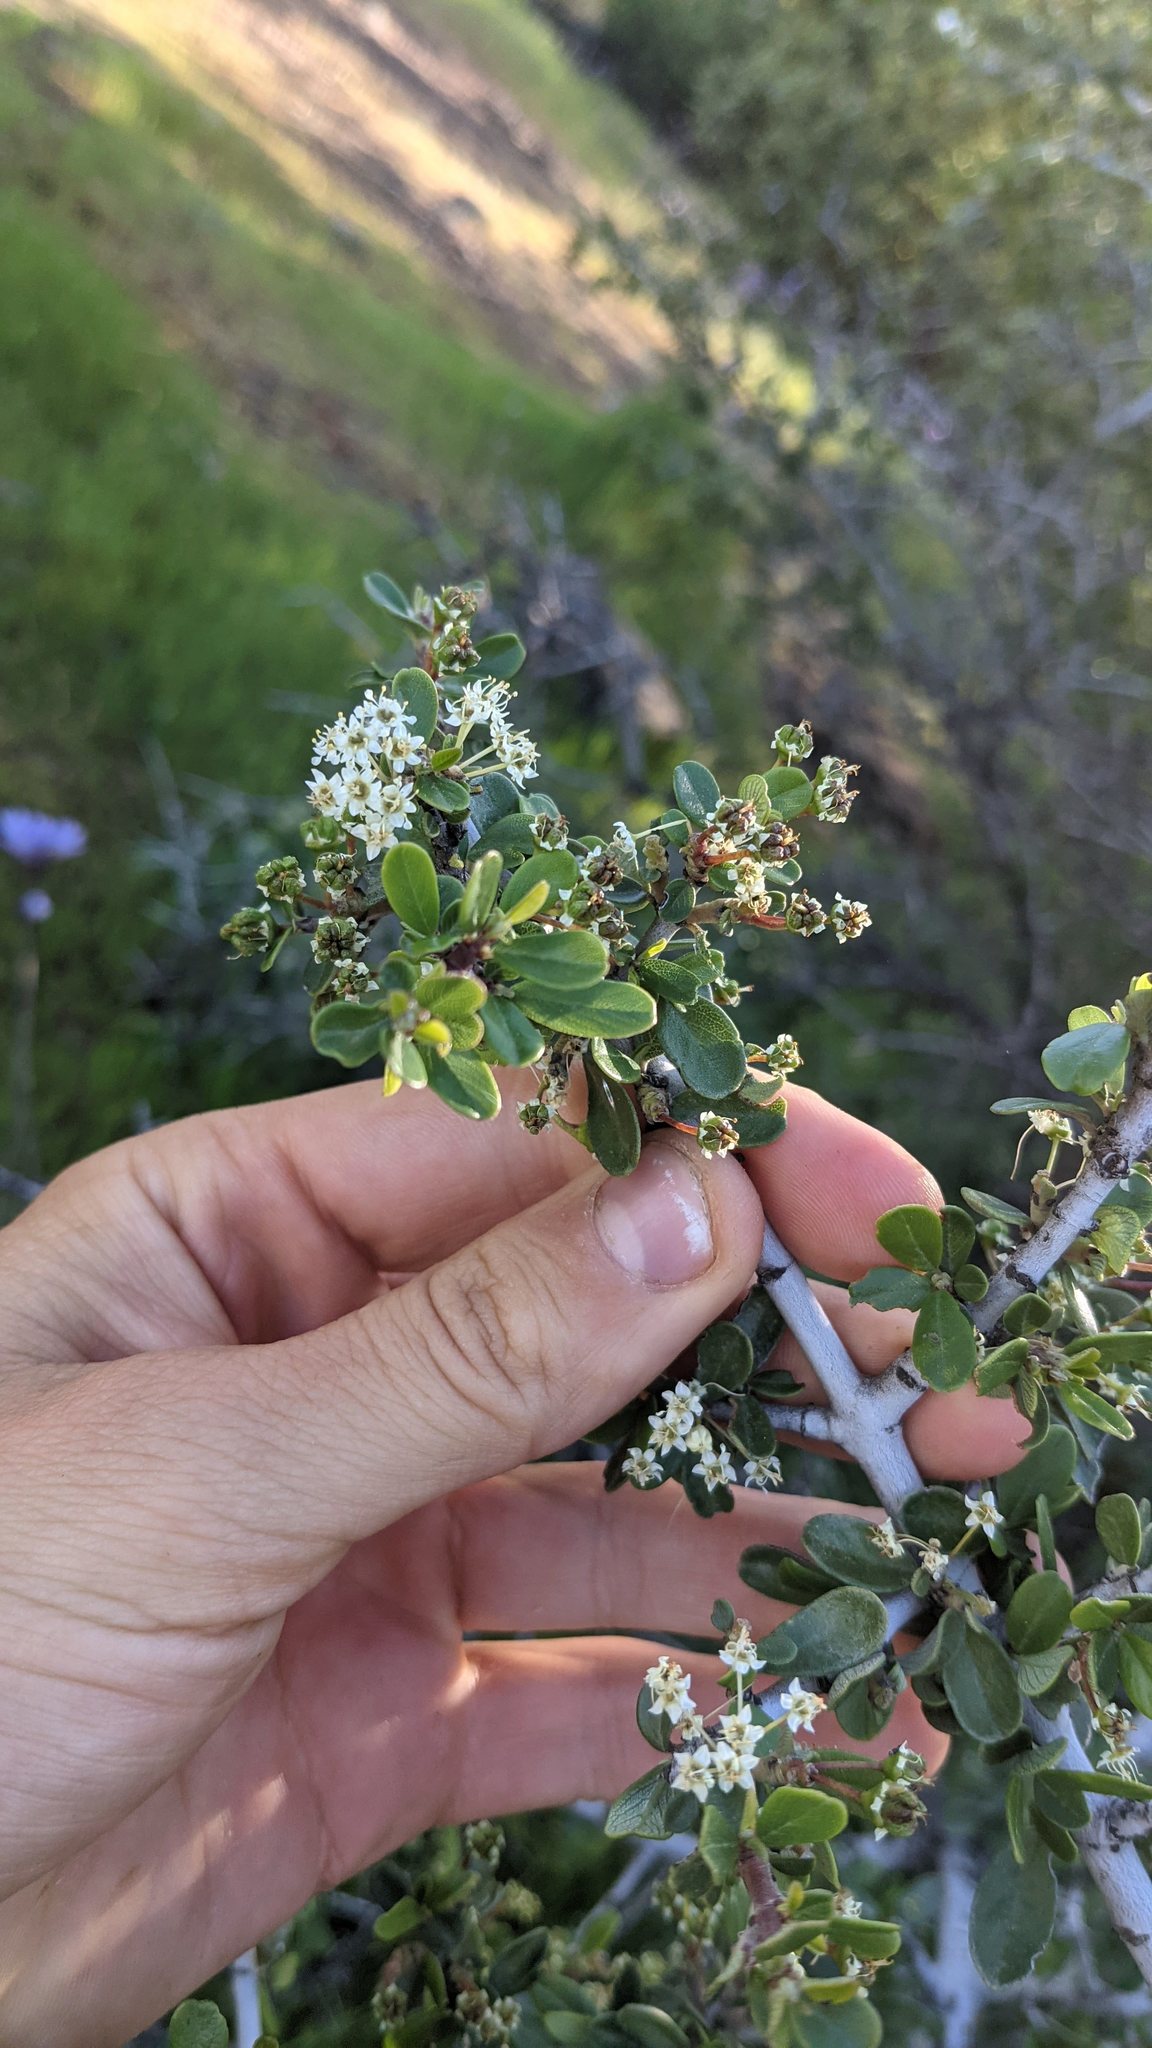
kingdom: Plantae
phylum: Tracheophyta
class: Magnoliopsida
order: Rosales
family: Rhamnaceae
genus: Ceanothus
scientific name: Ceanothus cuneatus
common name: Cuneate ceanothus
